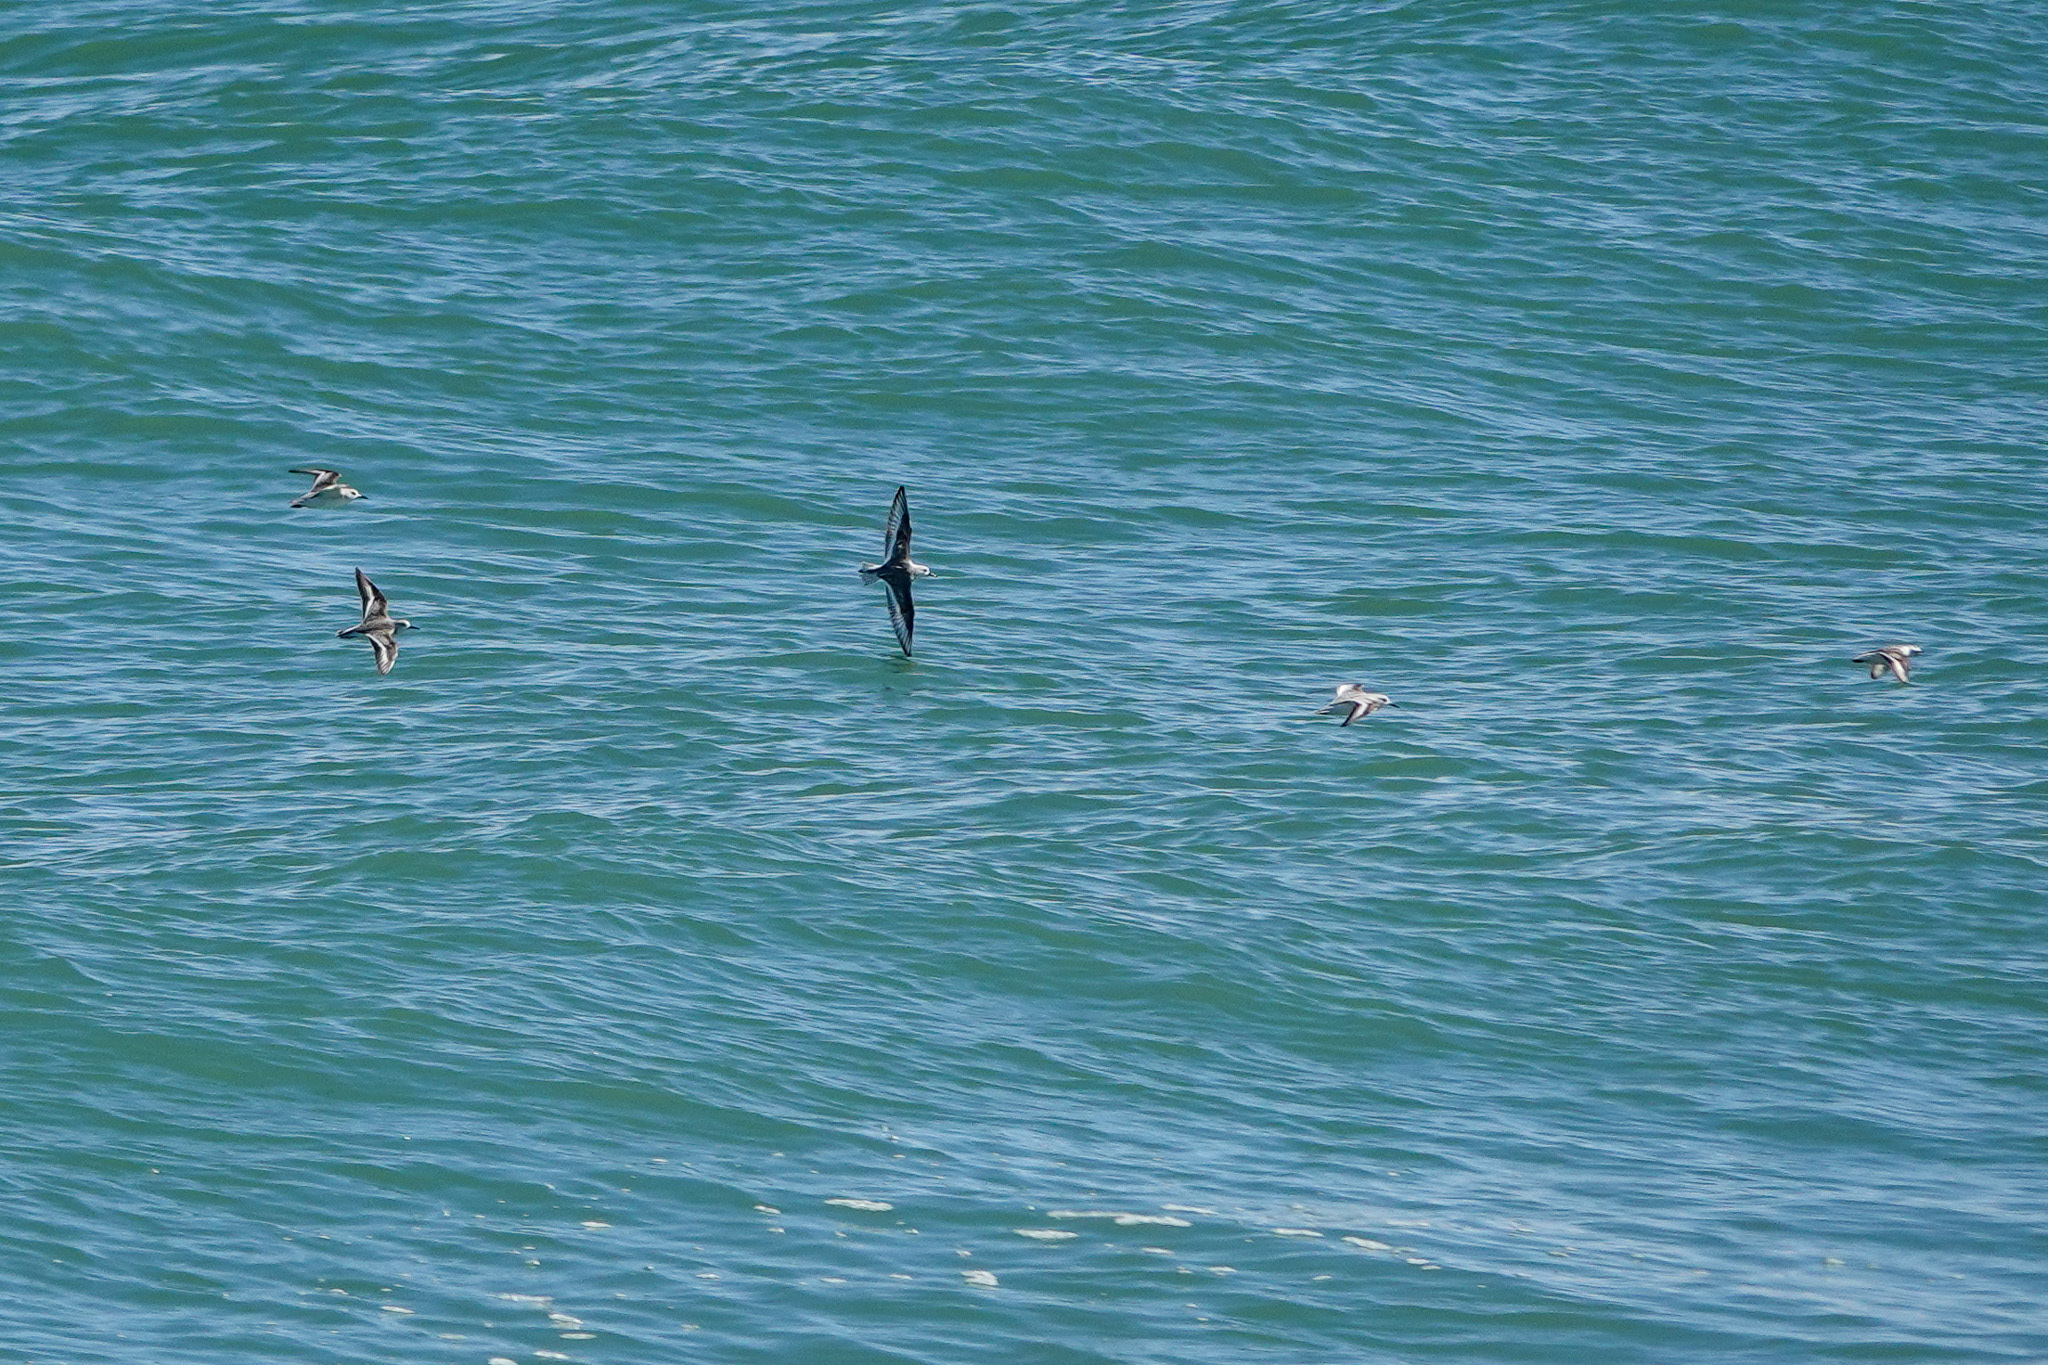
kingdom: Animalia
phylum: Chordata
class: Aves
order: Charadriiformes
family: Scolopacidae
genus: Calidris
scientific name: Calidris alba
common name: Sanderling
